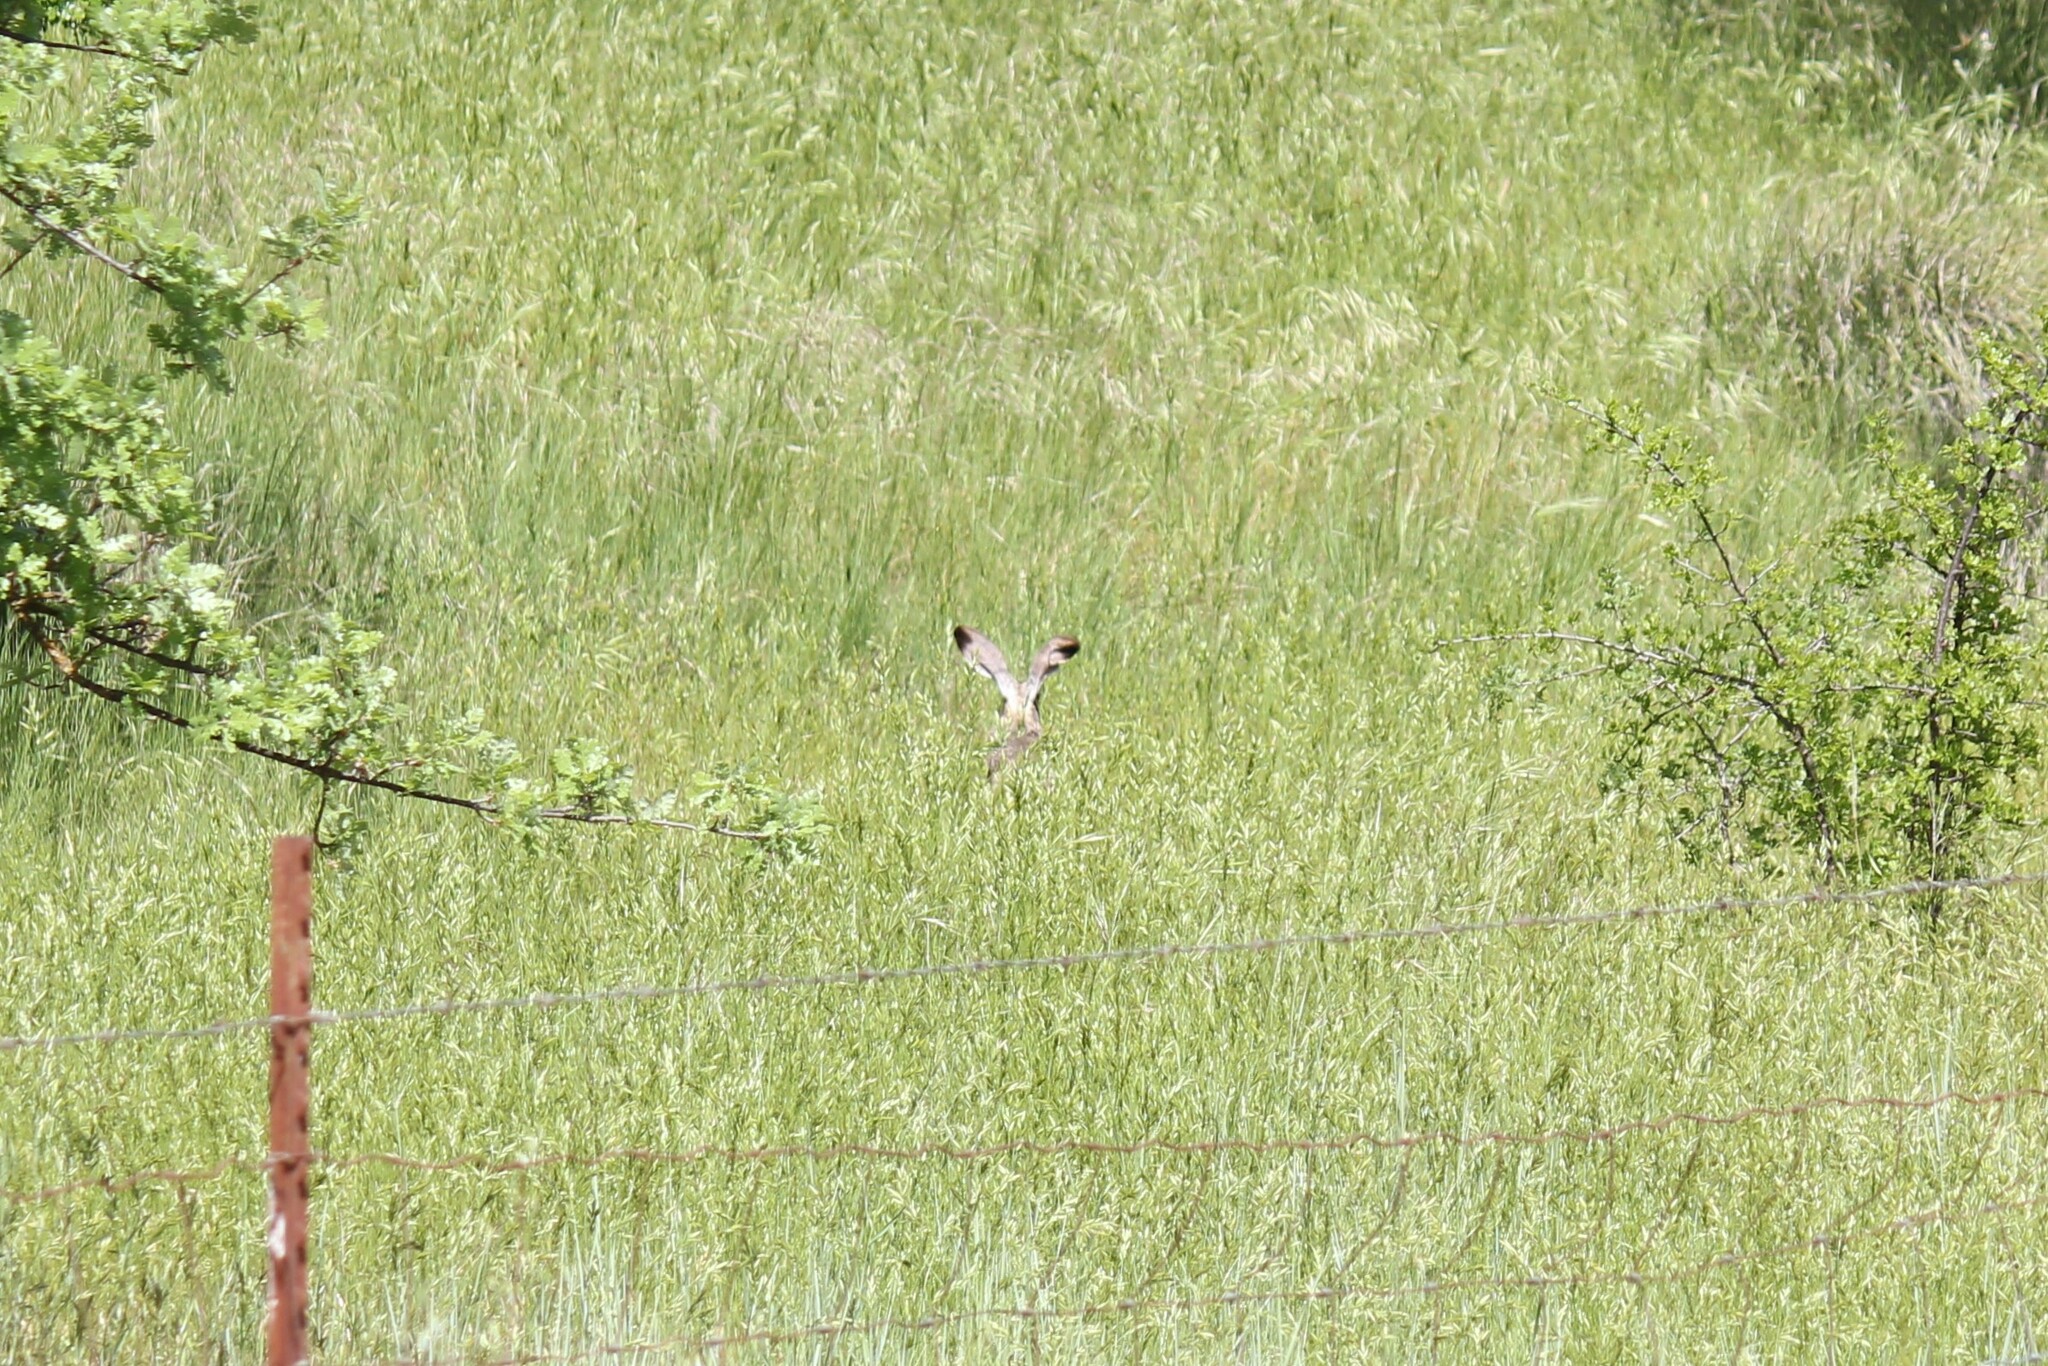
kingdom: Animalia
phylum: Chordata
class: Mammalia
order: Lagomorpha
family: Leporidae
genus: Lepus
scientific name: Lepus californicus
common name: Black-tailed jackrabbit
